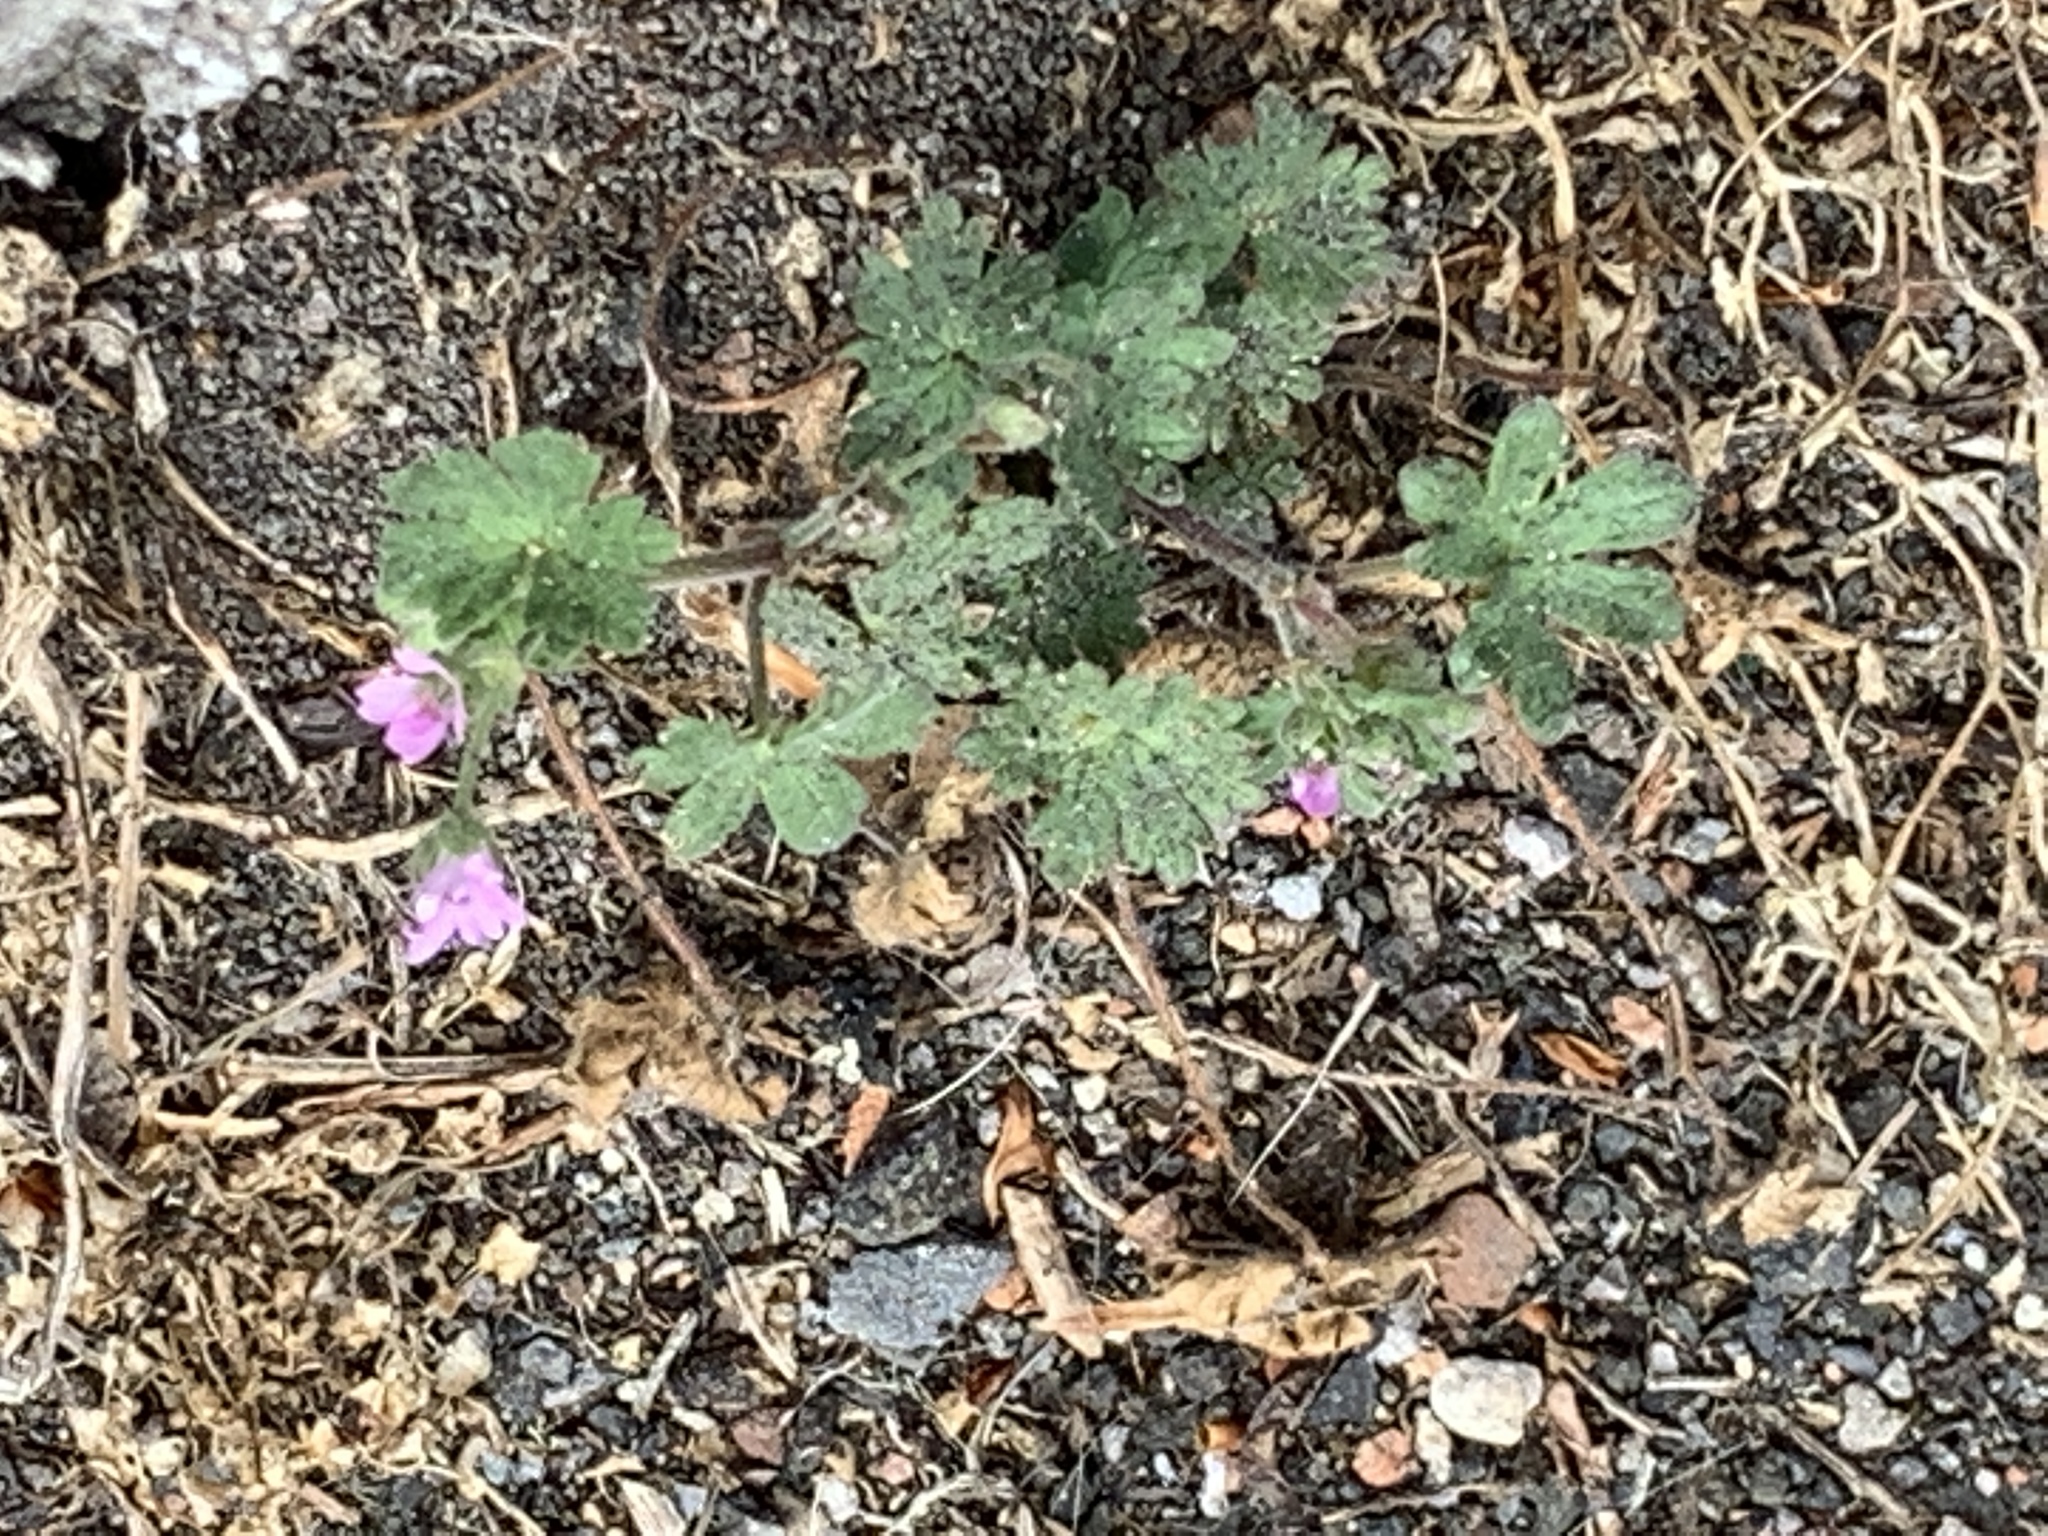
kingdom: Plantae
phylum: Tracheophyta
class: Magnoliopsida
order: Geraniales
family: Geraniaceae
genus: Geranium
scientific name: Geranium molle
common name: Dove's-foot crane's-bill
